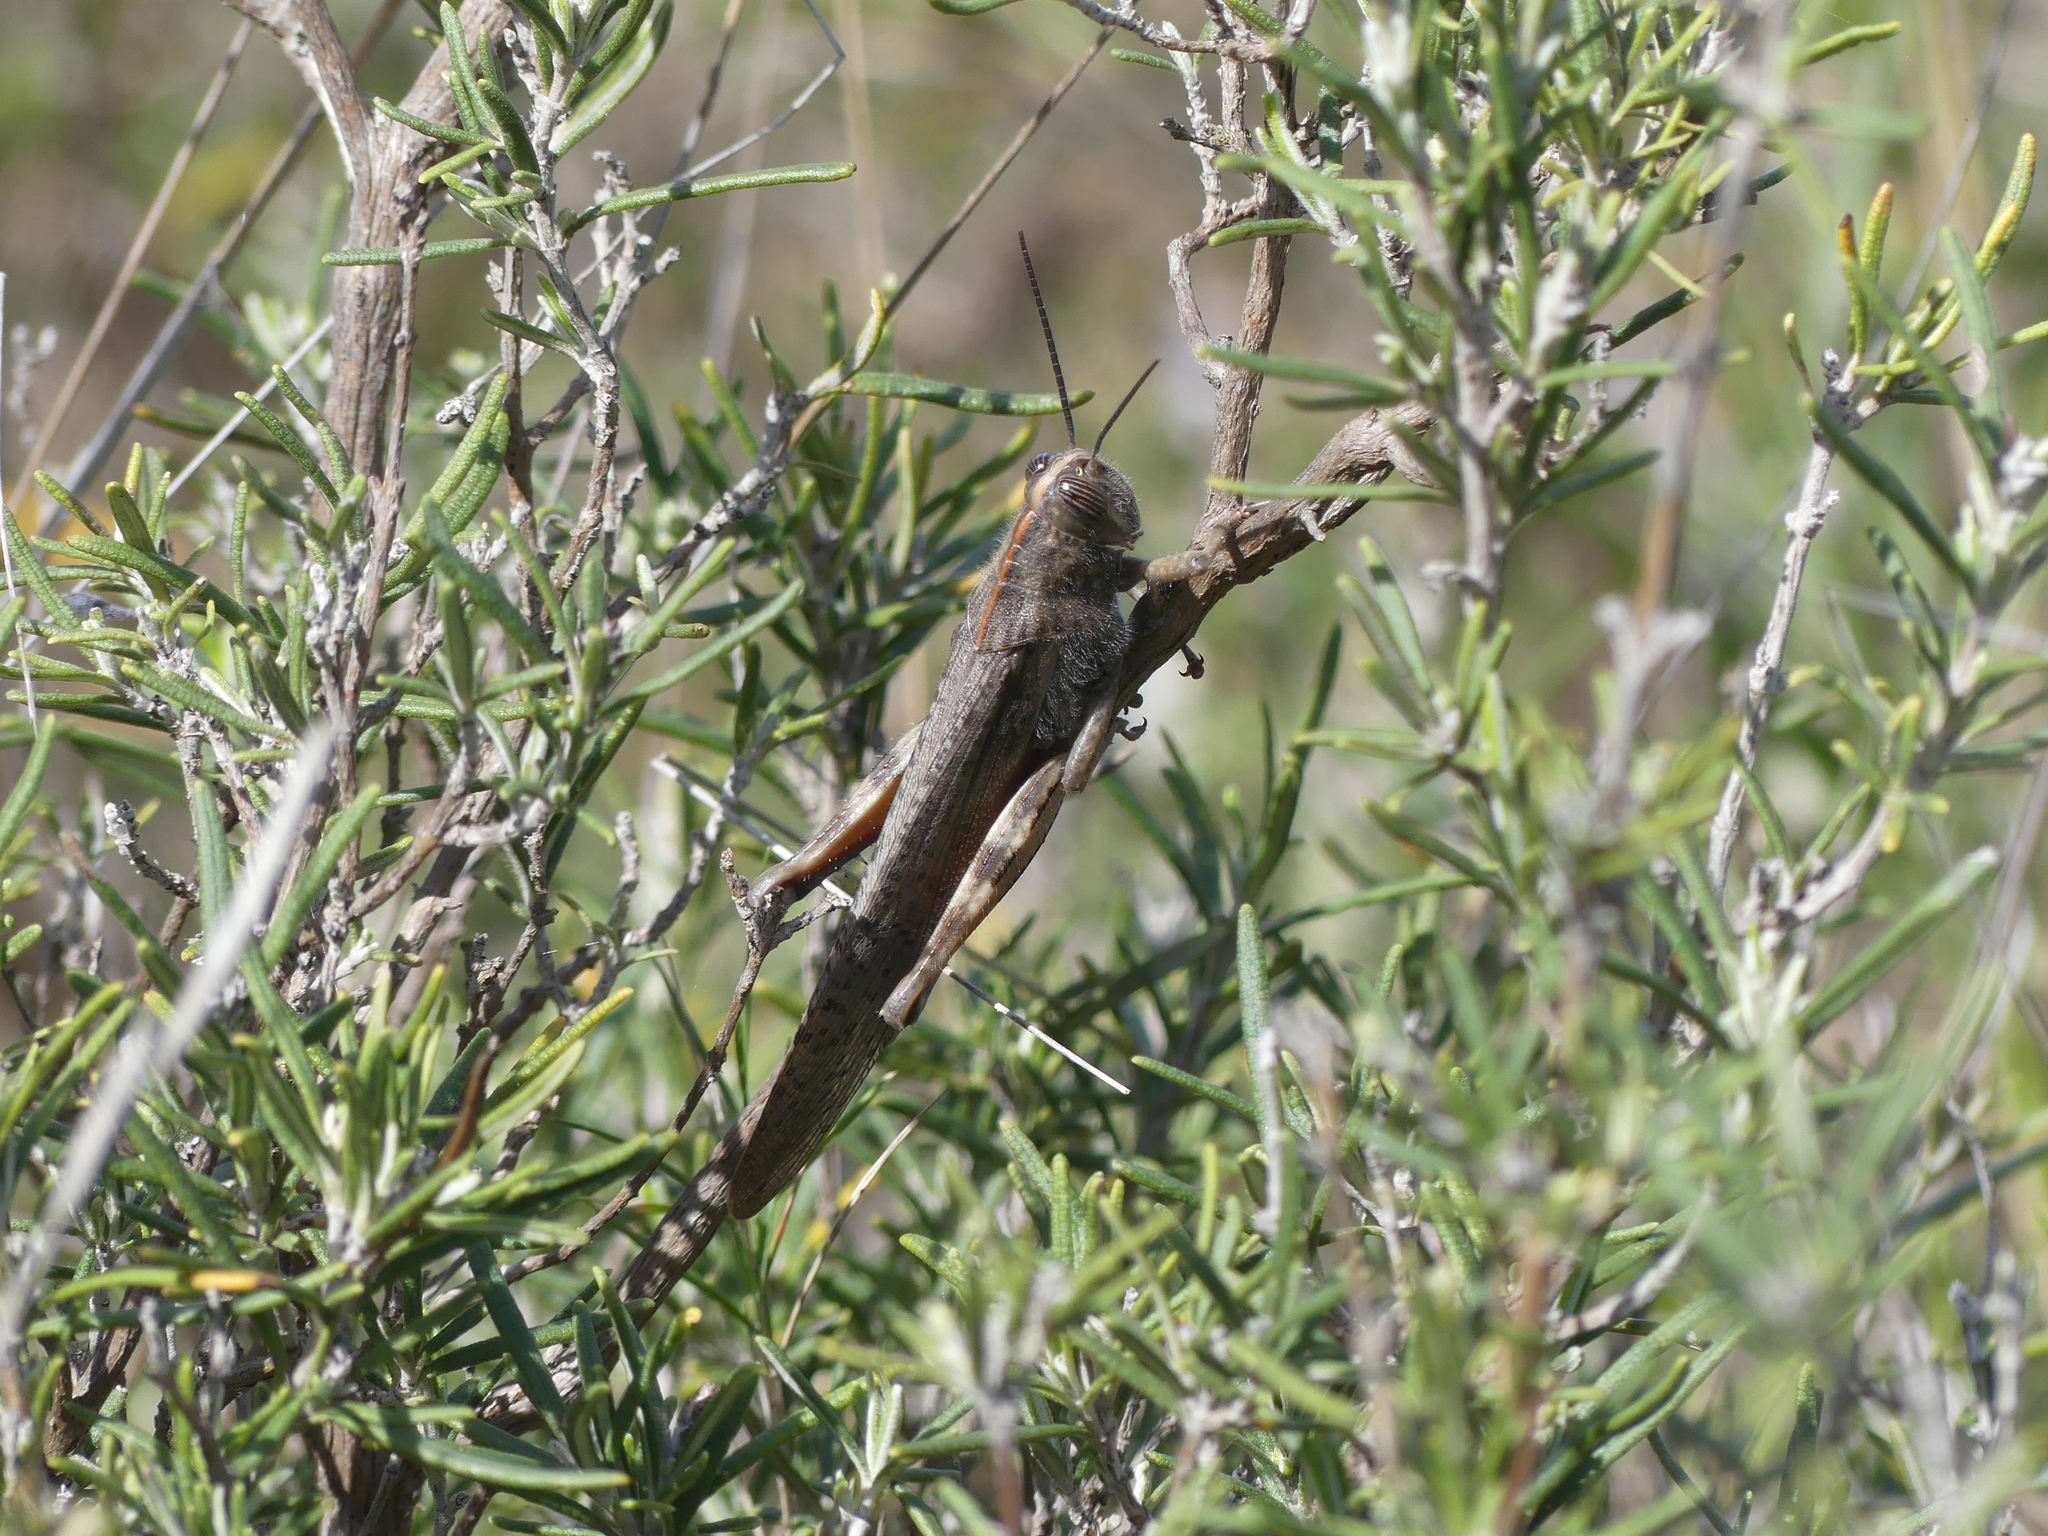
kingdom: Animalia
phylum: Arthropoda
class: Insecta
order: Orthoptera
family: Acrididae
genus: Anacridium
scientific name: Anacridium aegyptium
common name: Egyptian grasshopper
